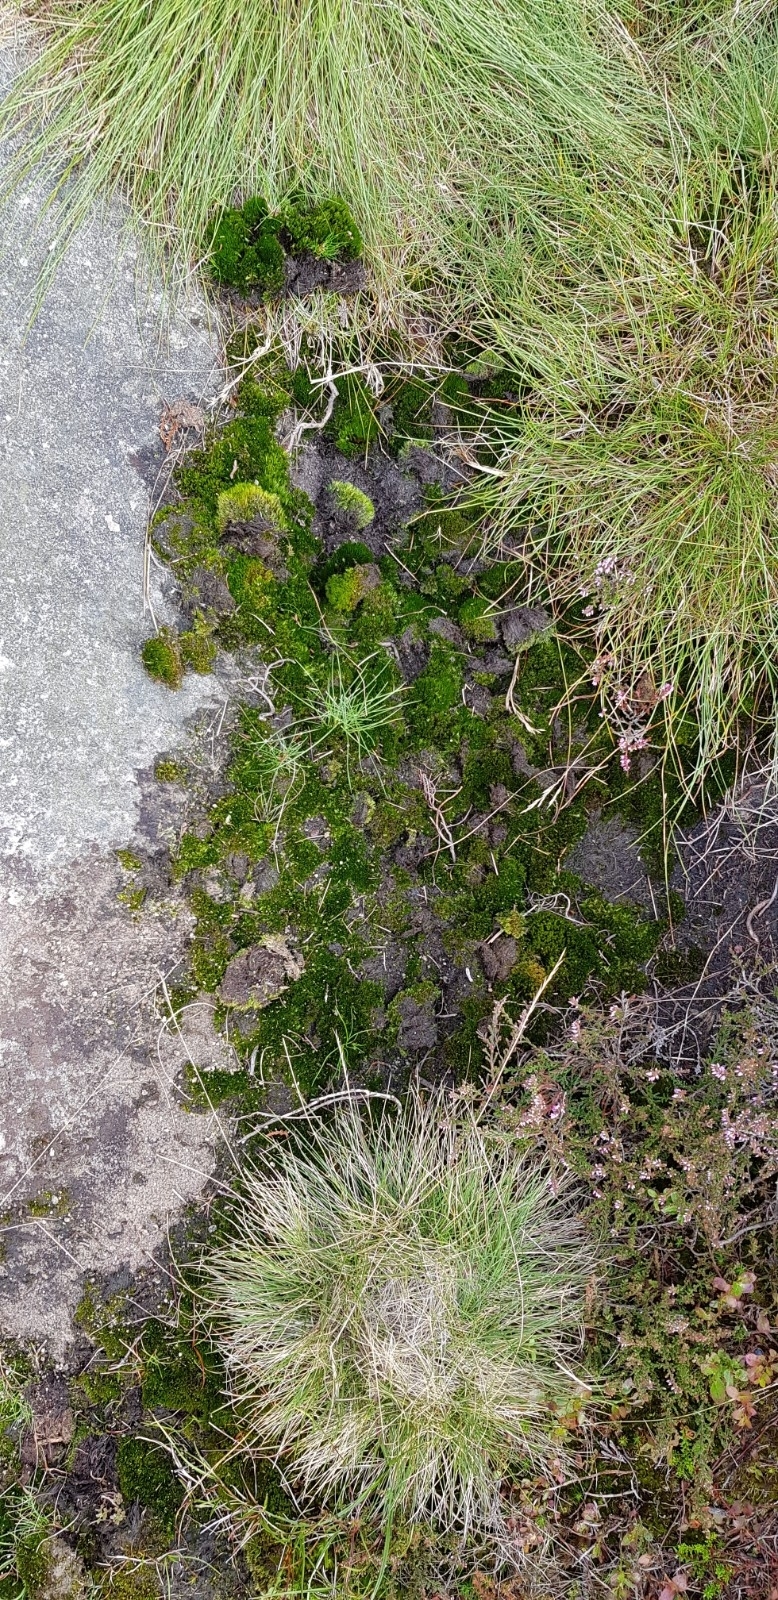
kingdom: Plantae
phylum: Bryophyta
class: Bryopsida
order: Dicranales
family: Leucobryaceae
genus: Campylopus
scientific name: Campylopus flexuosus
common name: Rusty swan-neck moss
